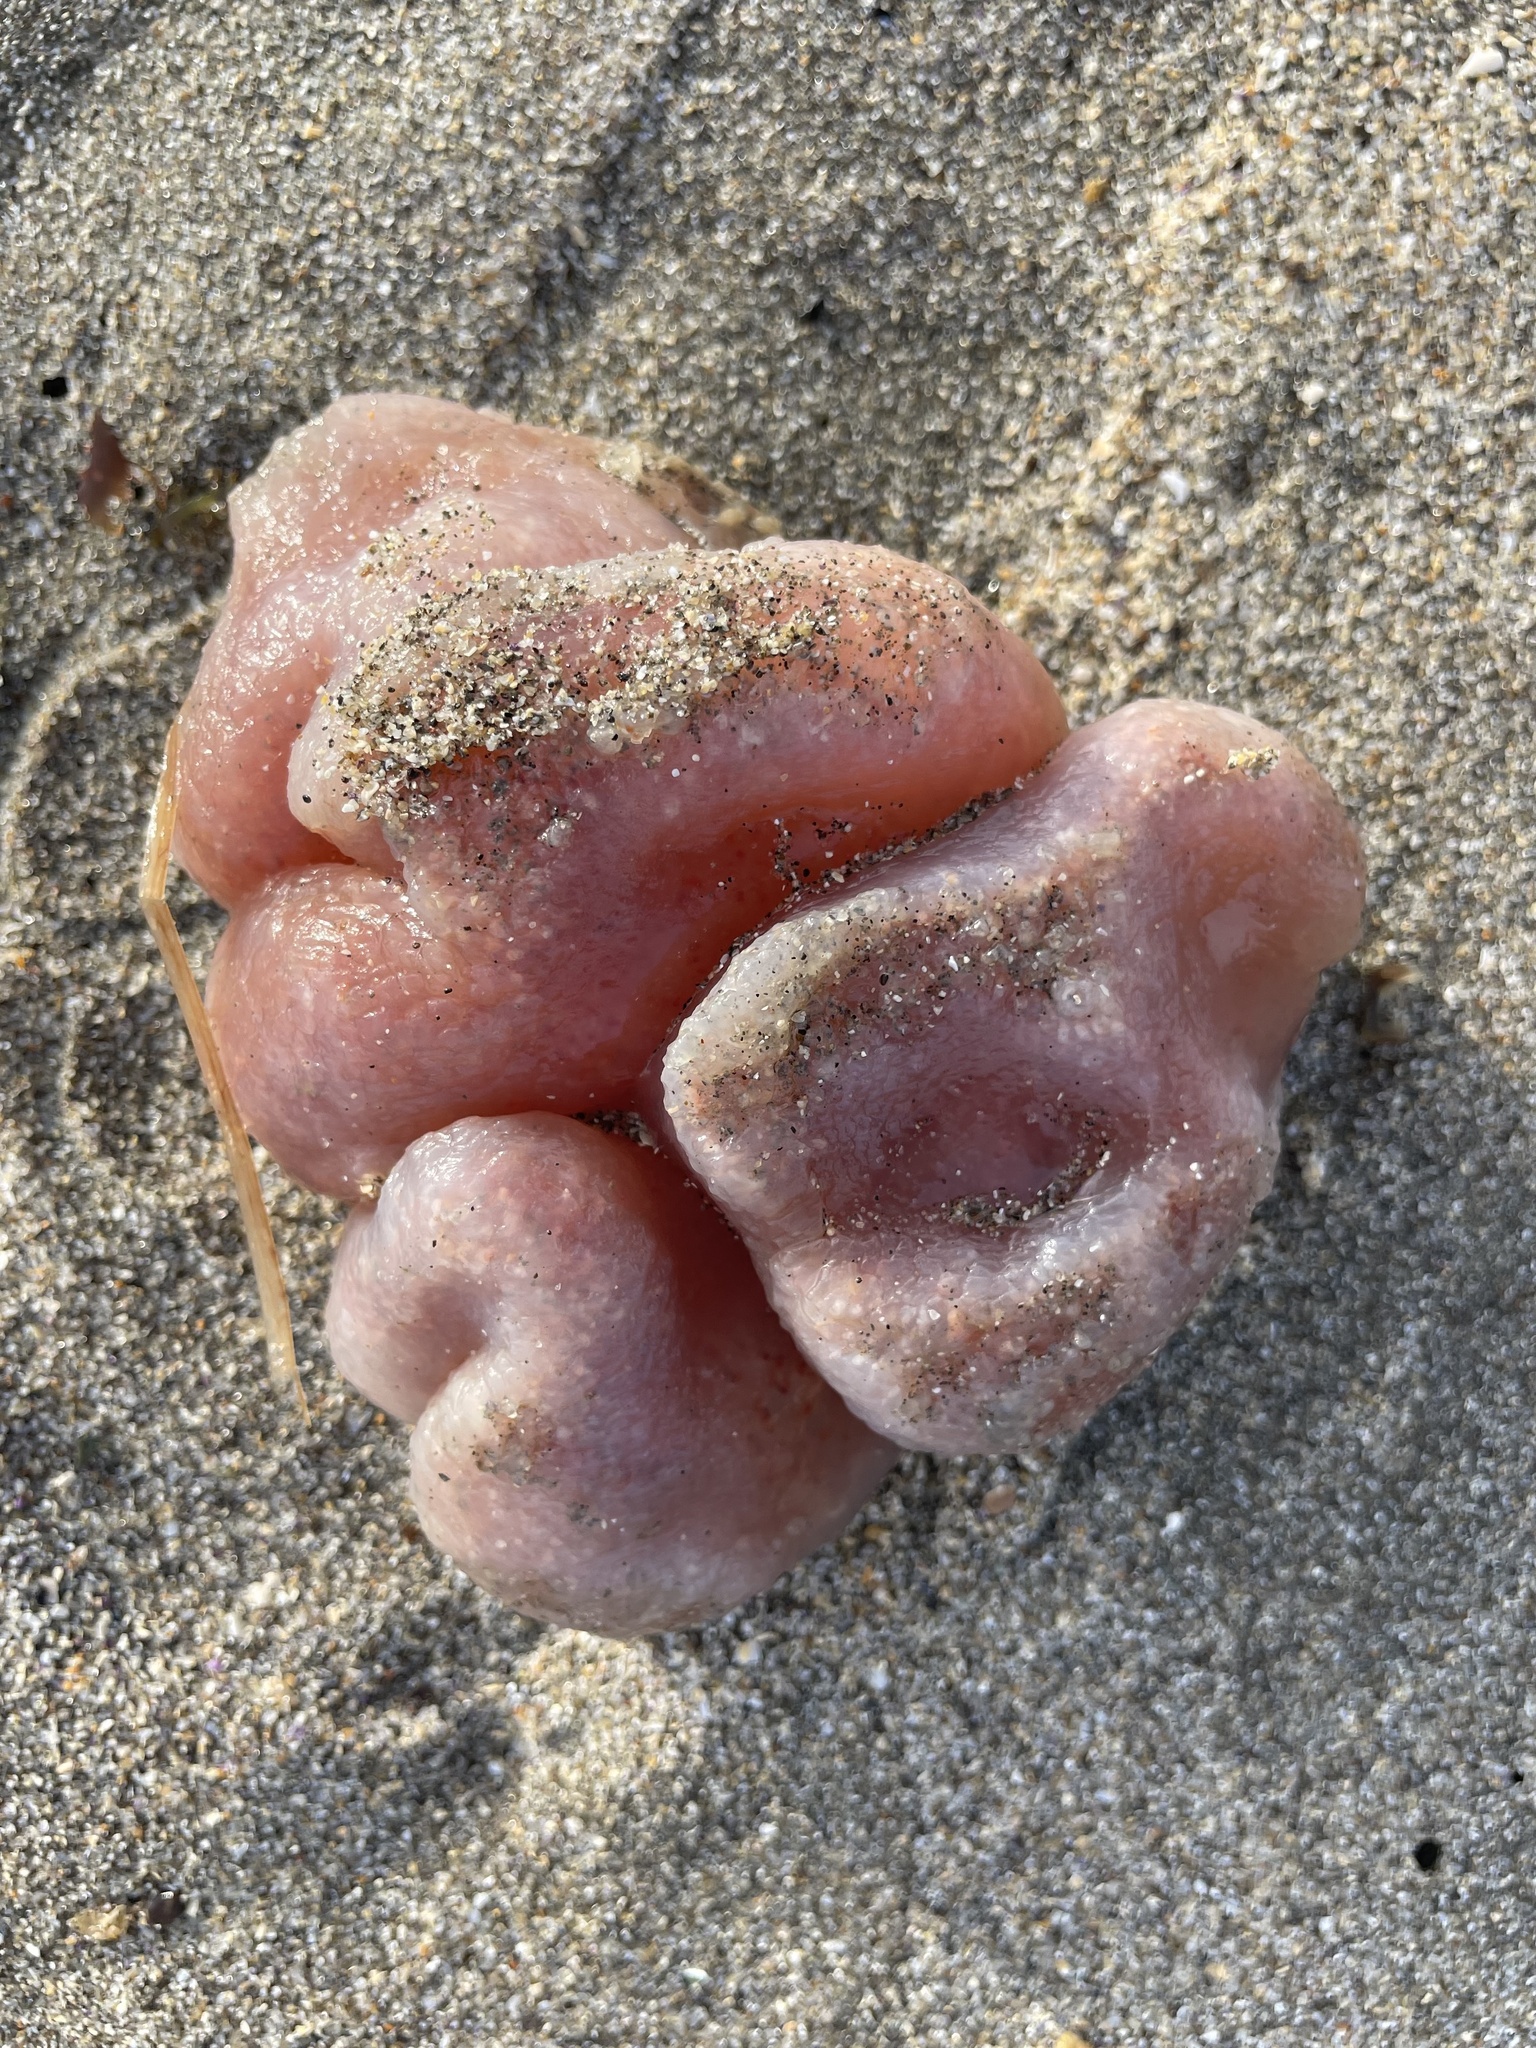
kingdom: Animalia
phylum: Chordata
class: Ascidiacea
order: Aplousobranchia
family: Polyclinidae
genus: Aplidium
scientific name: Aplidium californicum
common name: Sea pork
